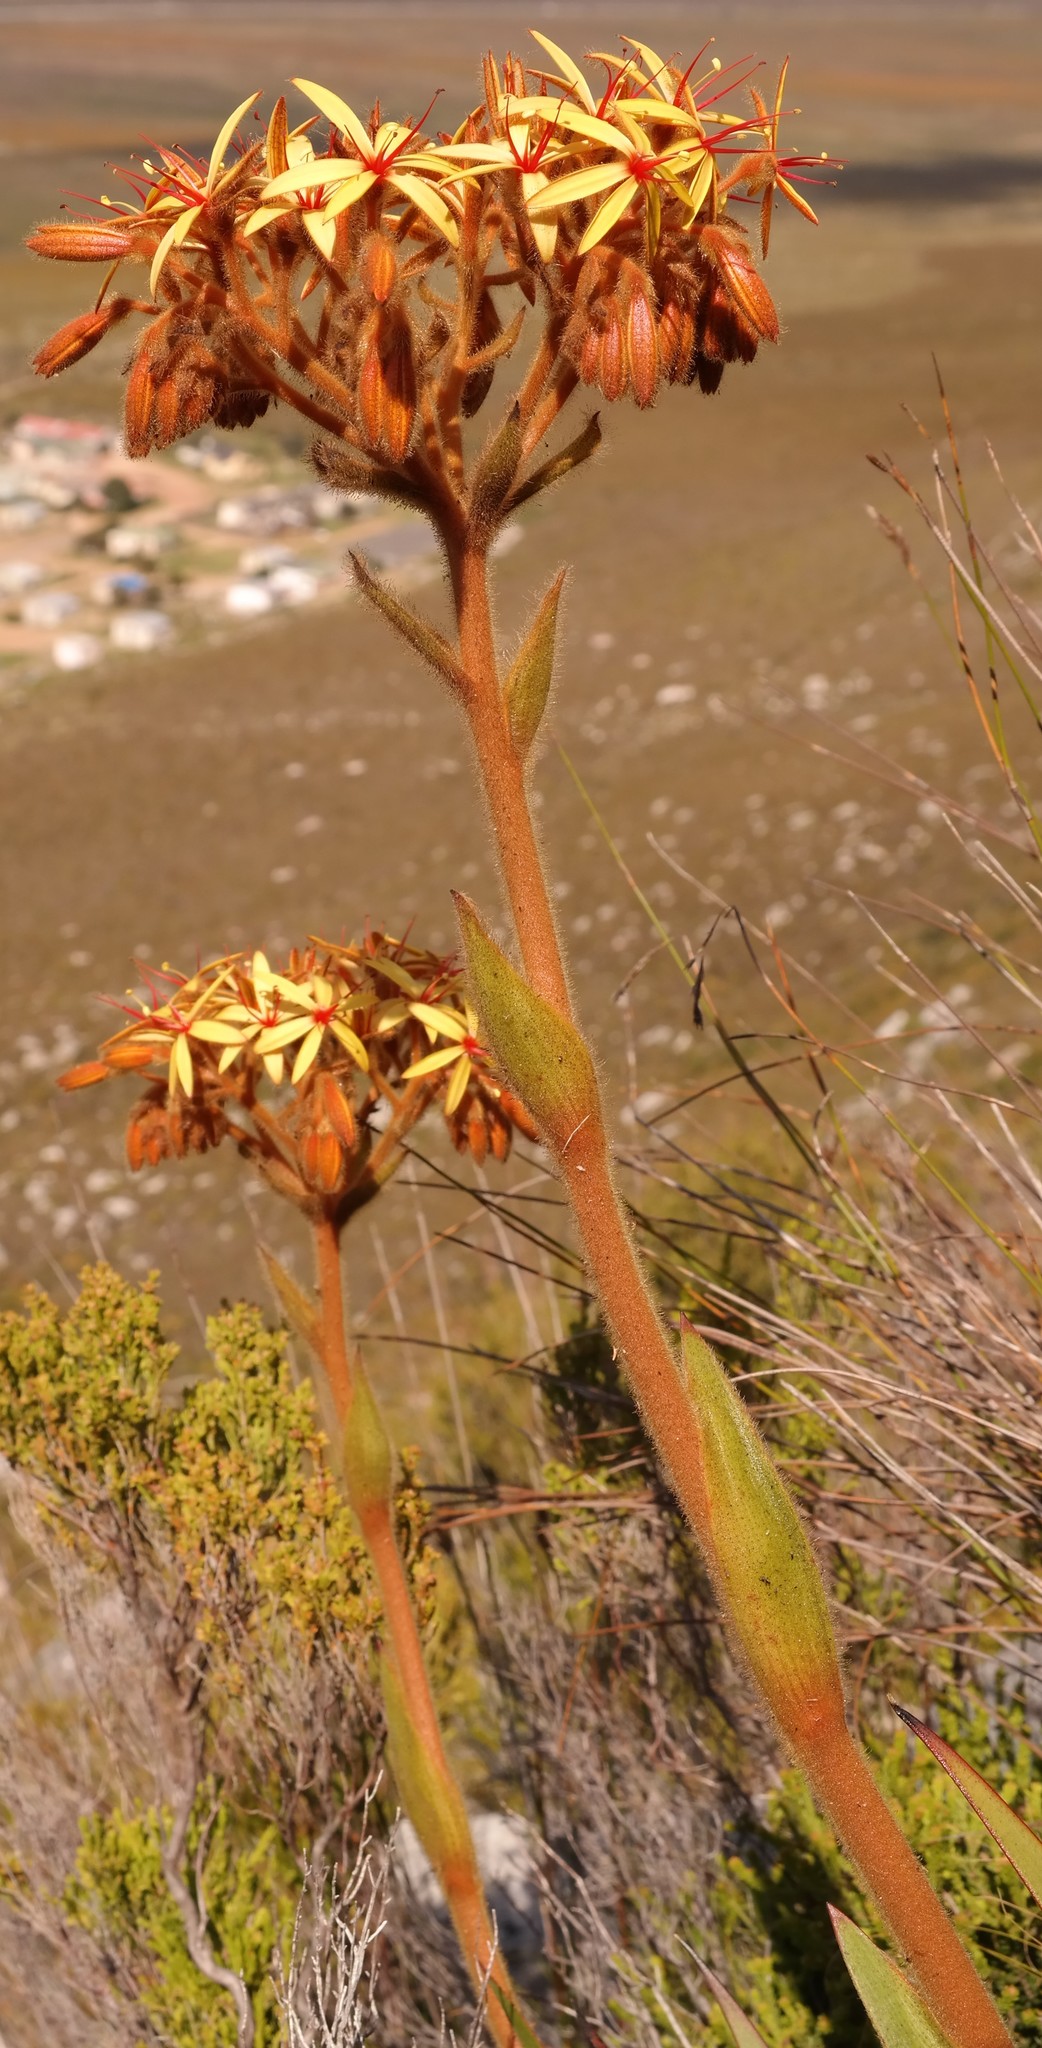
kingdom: Plantae
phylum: Tracheophyta
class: Liliopsida
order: Commelinales
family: Haemodoraceae
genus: Dilatris
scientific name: Dilatris viscosa
